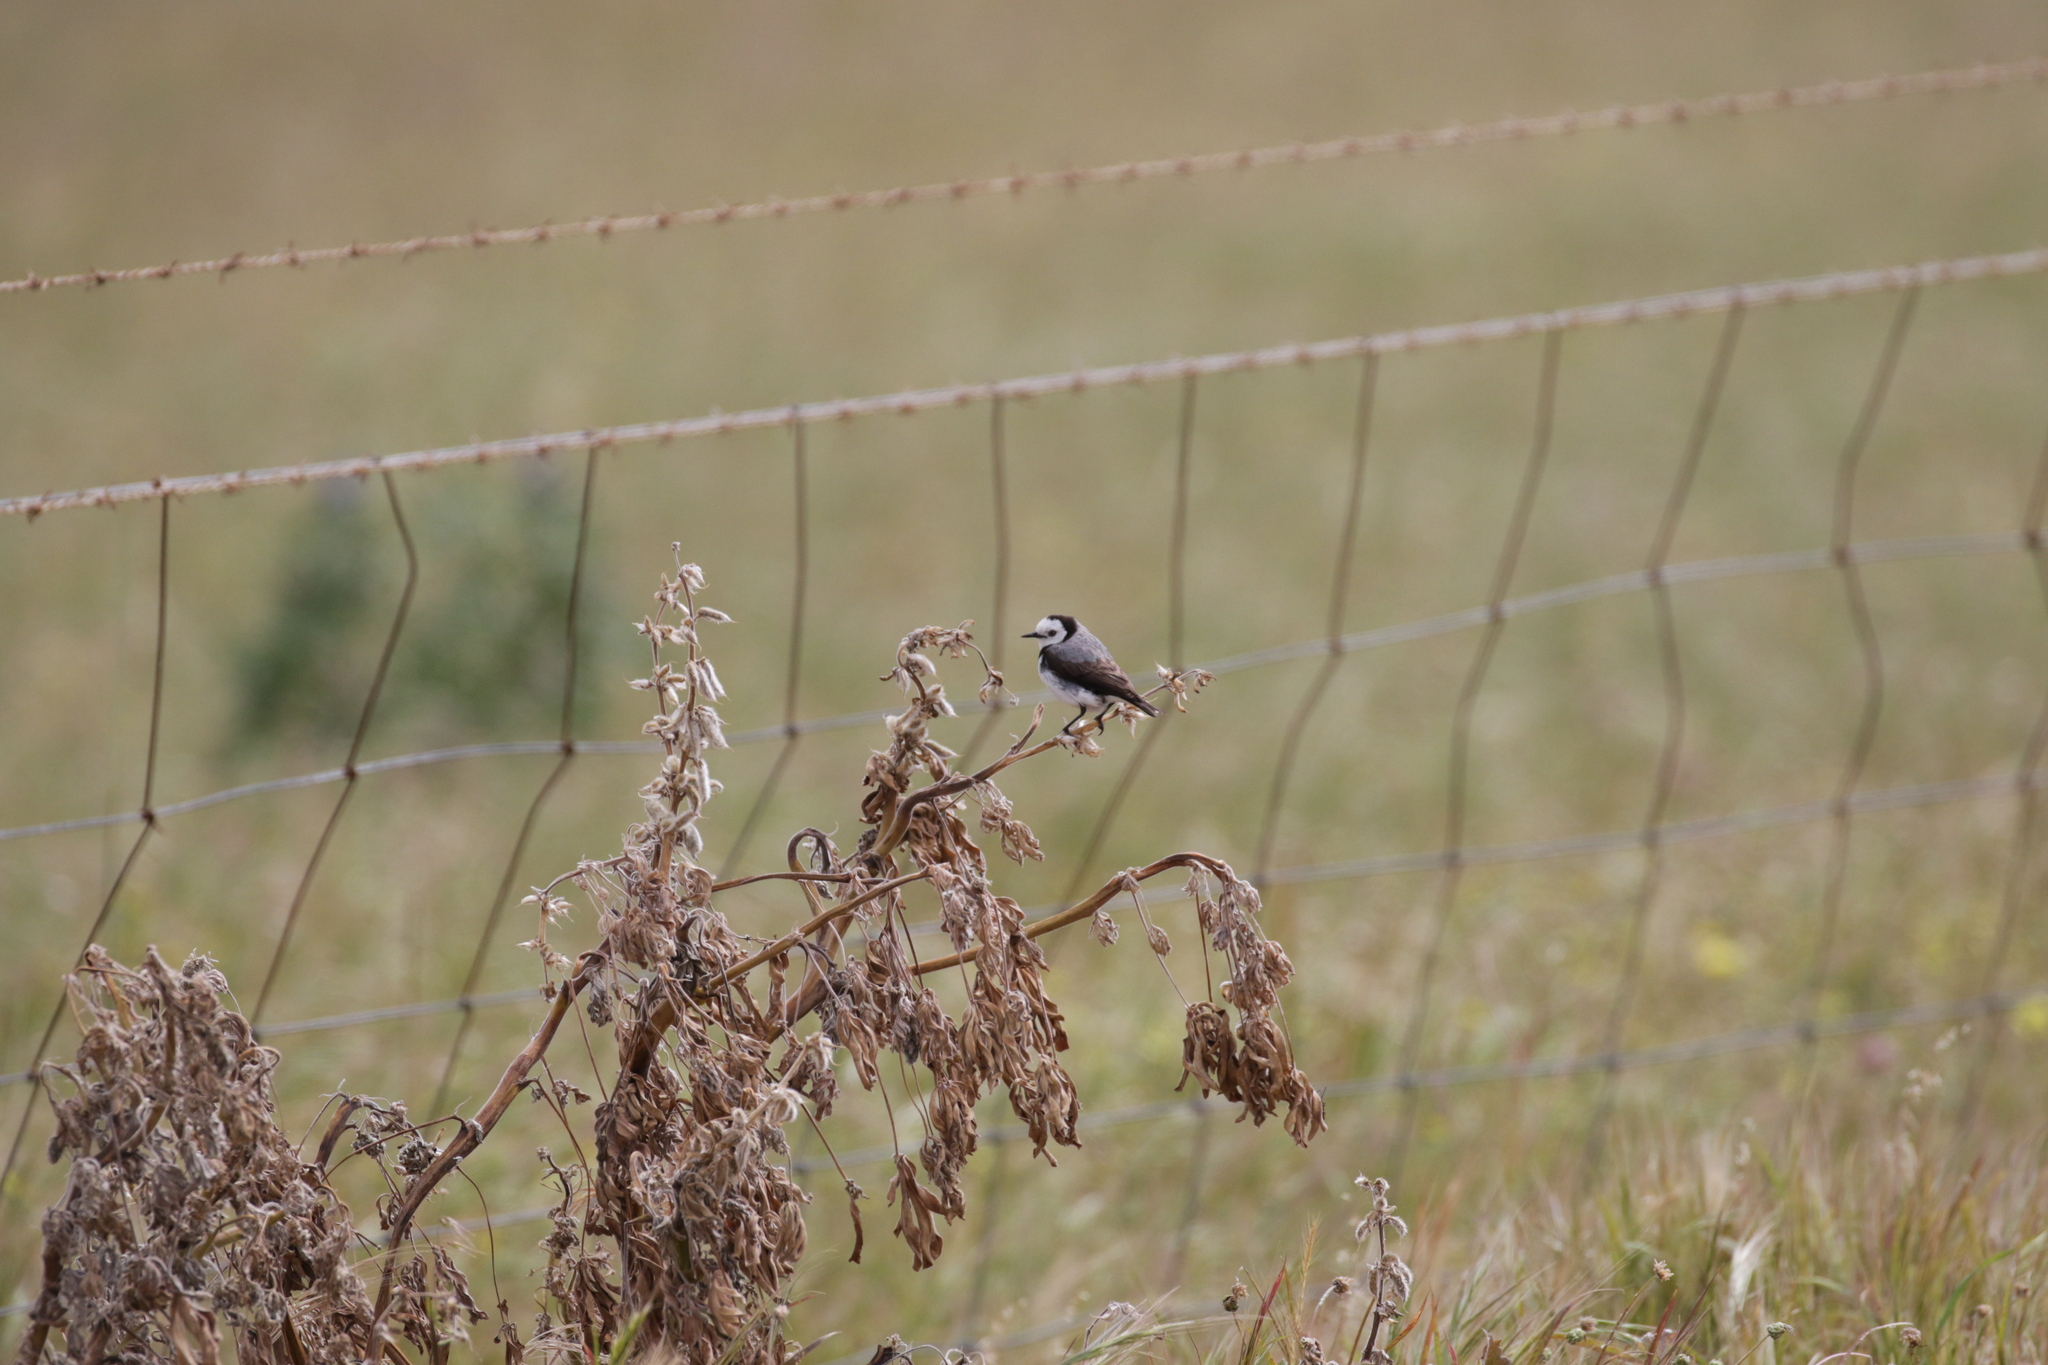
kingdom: Animalia
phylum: Chordata
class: Aves
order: Passeriformes
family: Meliphagidae
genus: Epthianura
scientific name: Epthianura albifrons
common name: White-fronted chat
